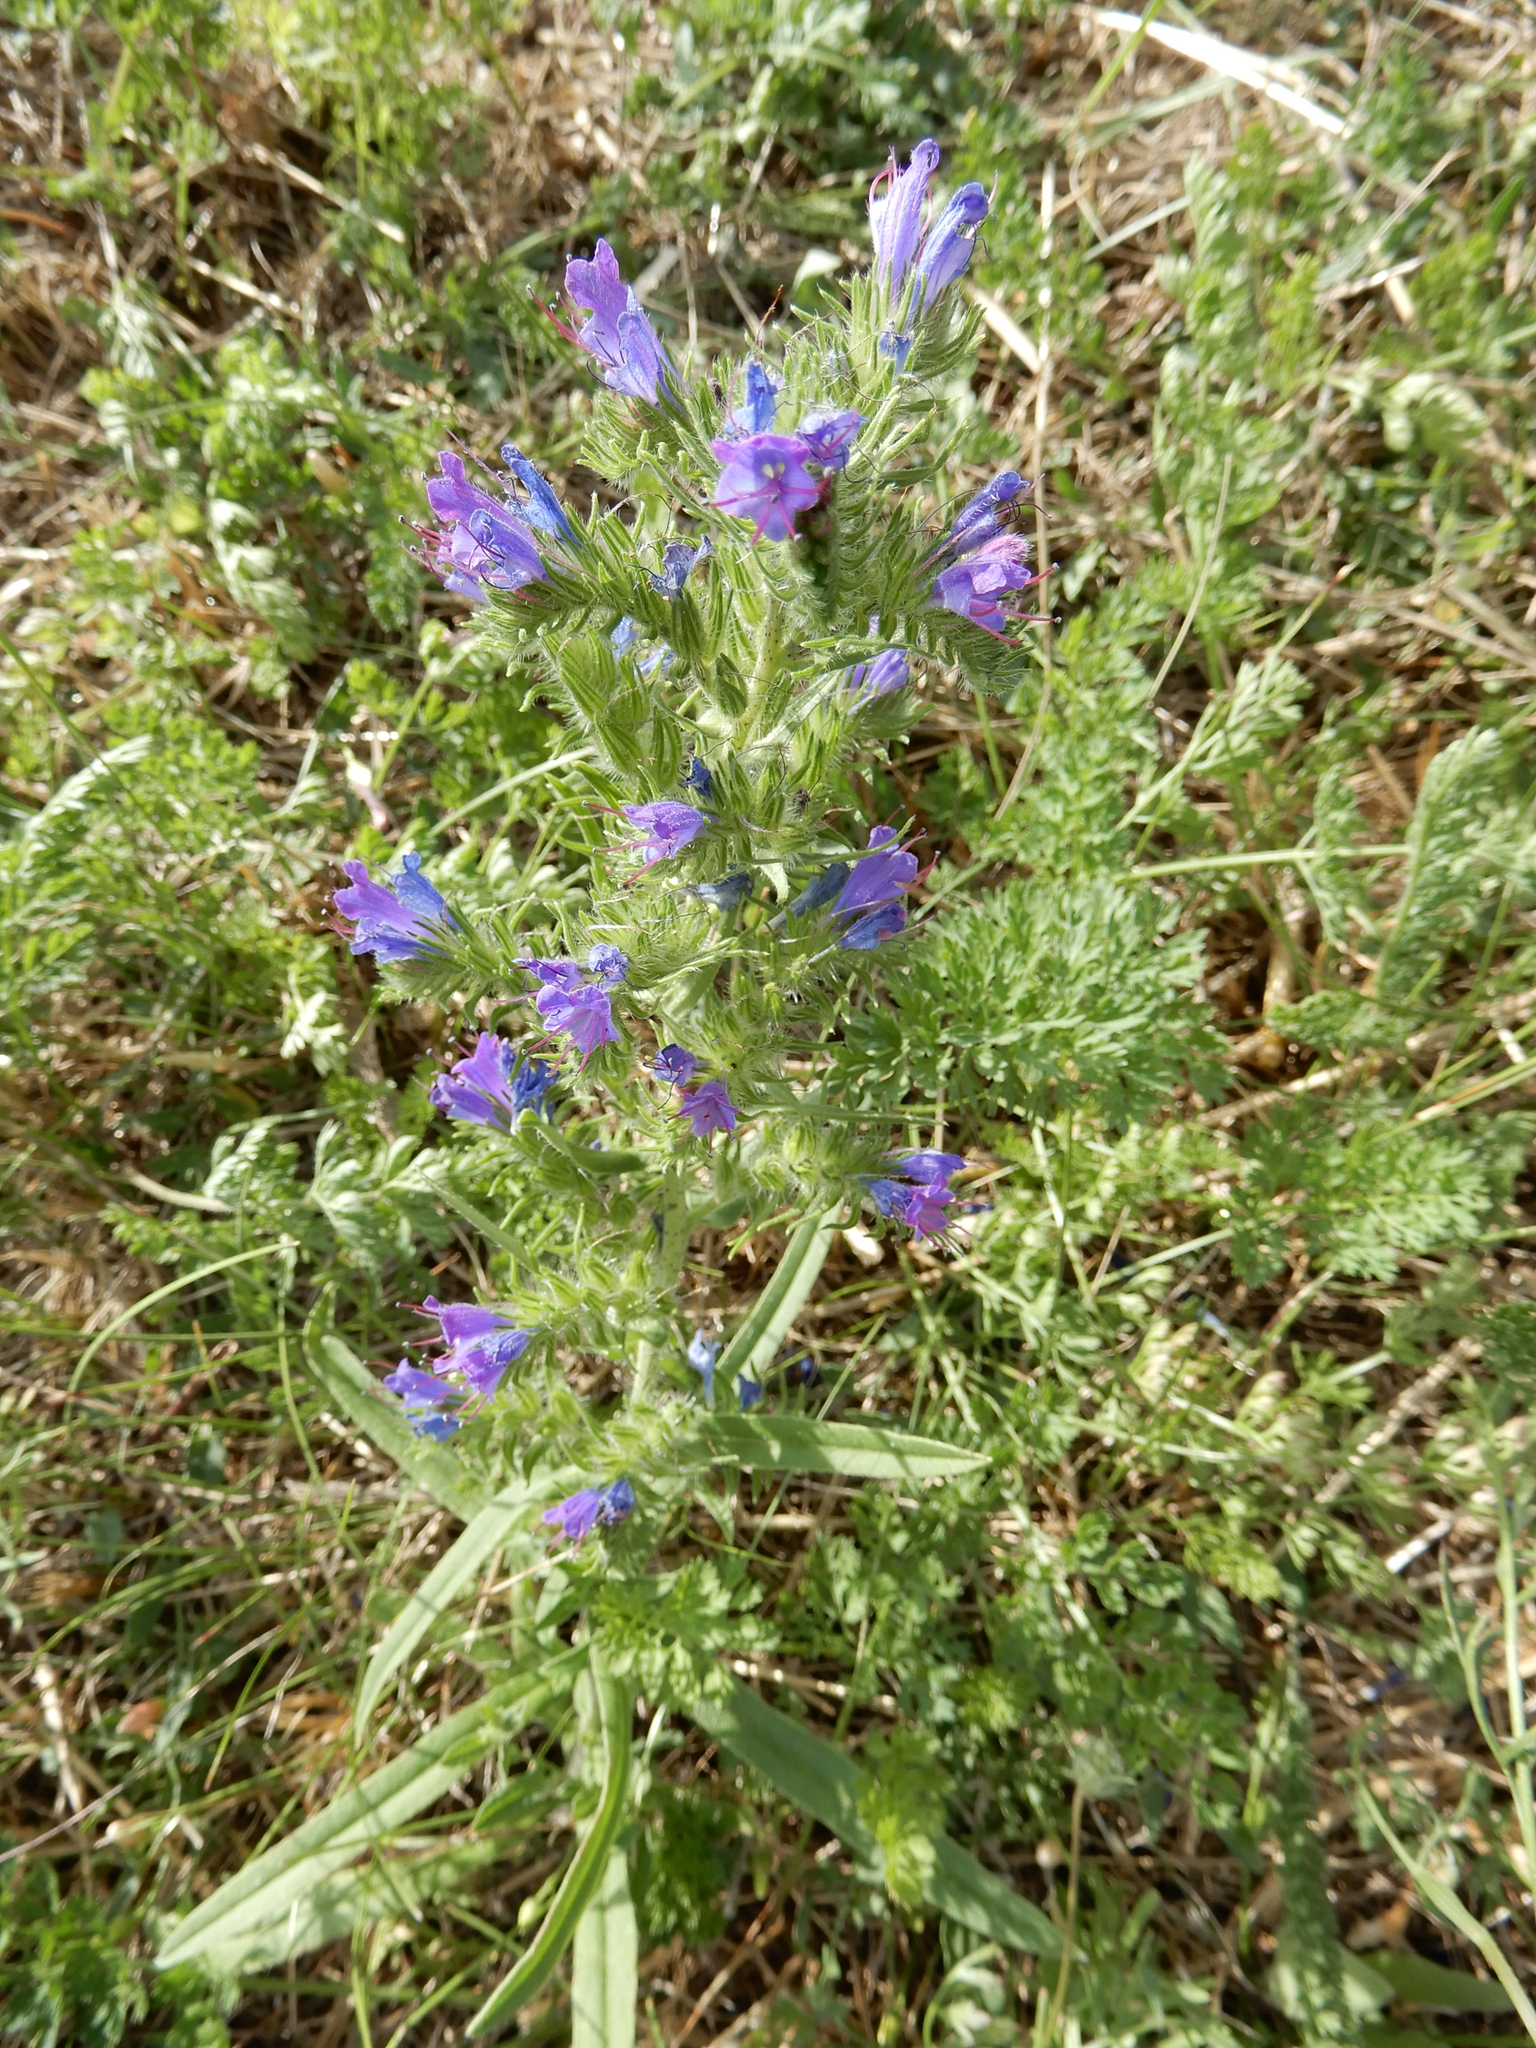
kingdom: Plantae
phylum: Tracheophyta
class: Magnoliopsida
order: Boraginales
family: Boraginaceae
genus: Echium
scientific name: Echium vulgare
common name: Common viper's bugloss
